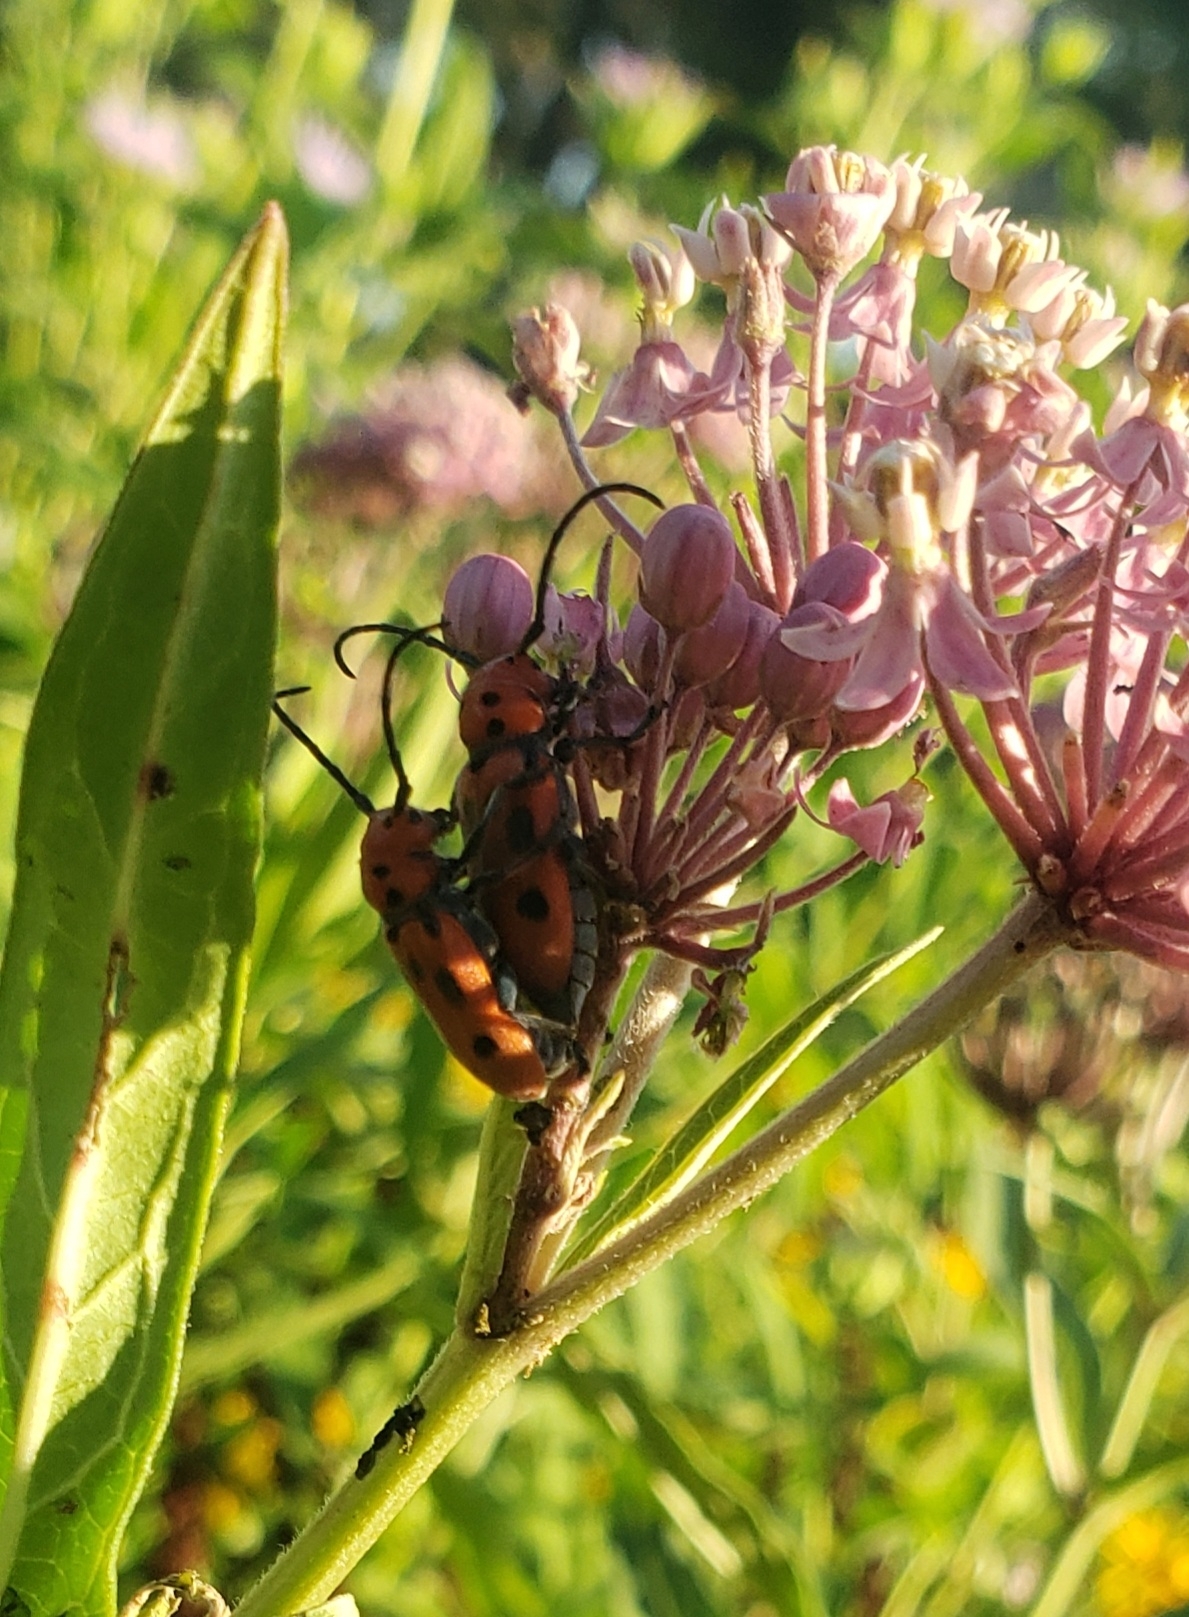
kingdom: Animalia
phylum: Arthropoda
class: Insecta
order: Coleoptera
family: Cerambycidae
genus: Tetraopes
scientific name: Tetraopes tetrophthalmus
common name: Red milkweed beetle
